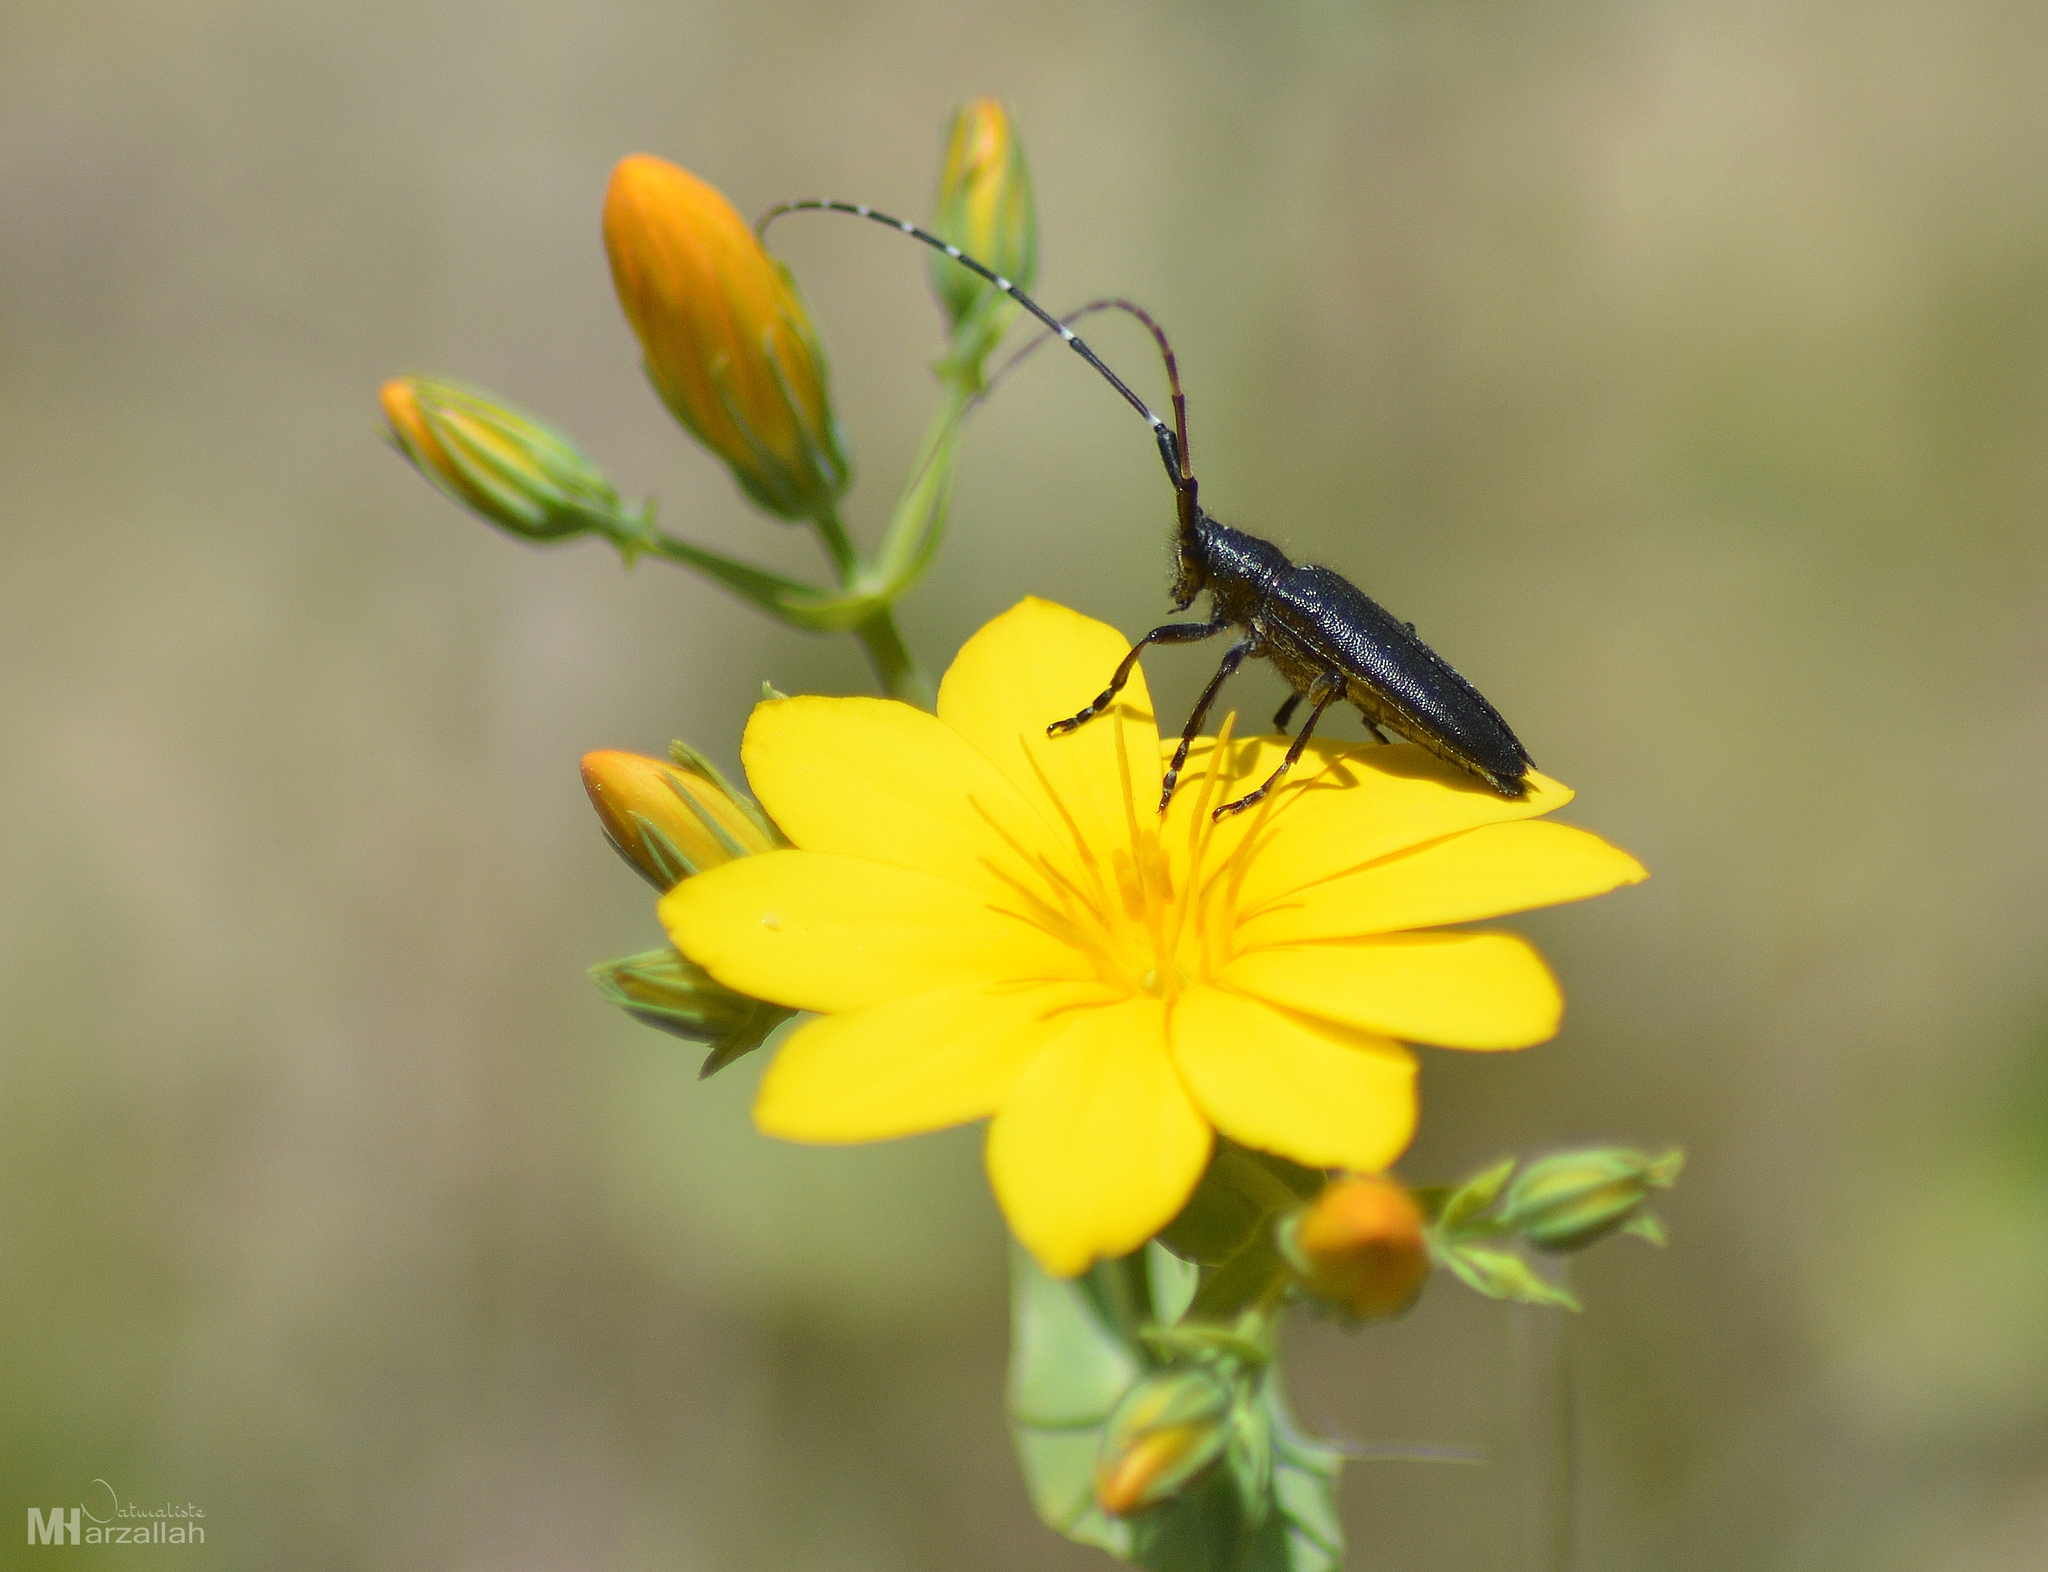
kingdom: Animalia
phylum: Arthropoda
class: Insecta
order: Coleoptera
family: Cerambycidae
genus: Agapanthia
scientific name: Agapanthia irrorata
